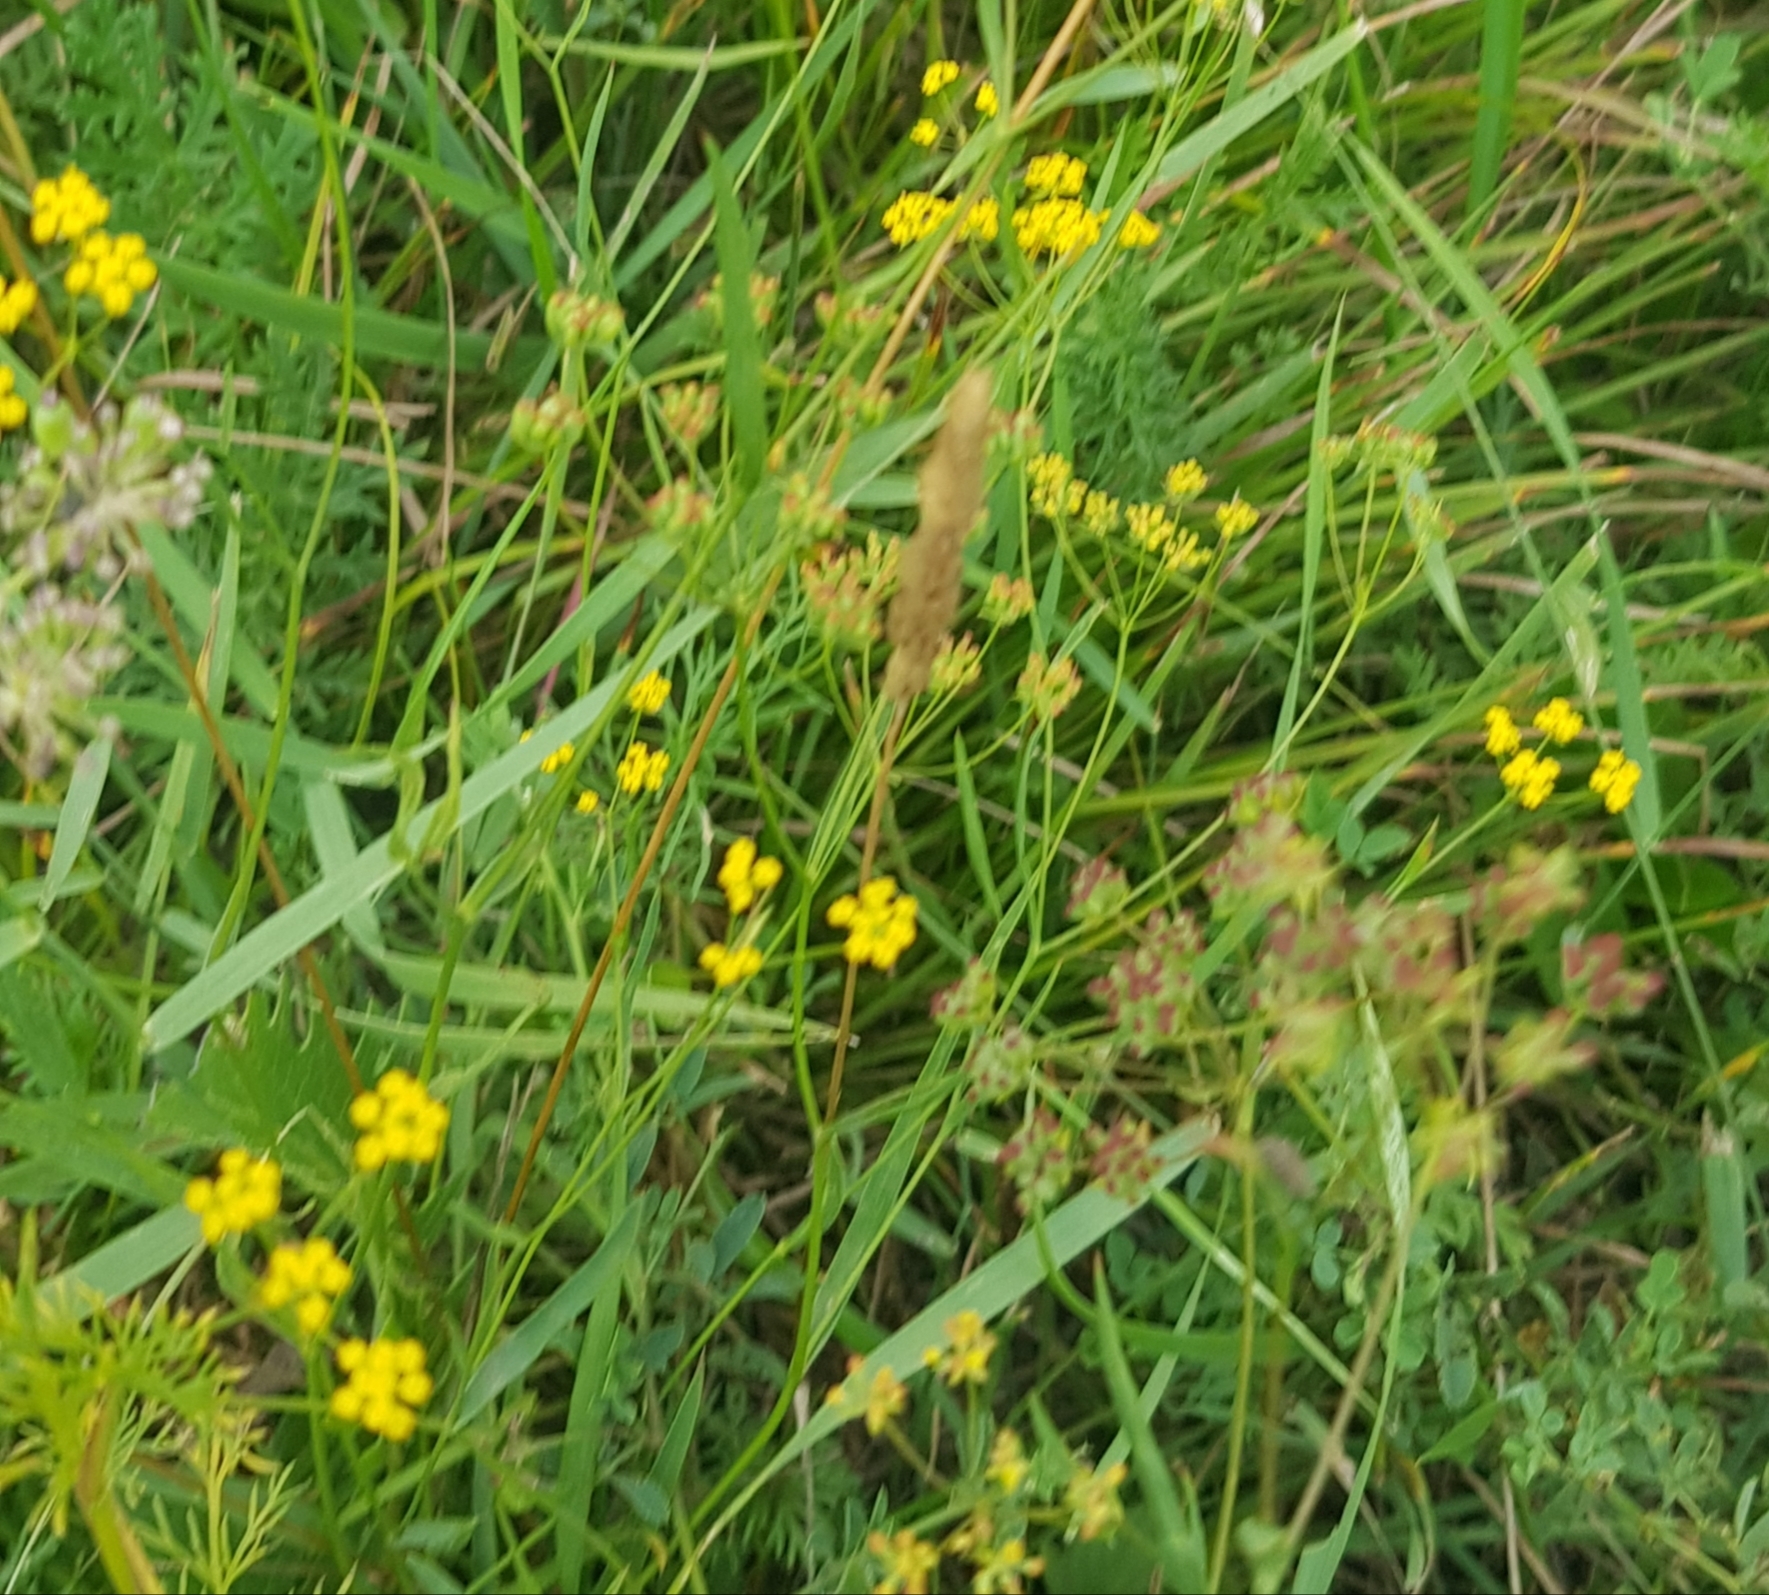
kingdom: Plantae
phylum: Tracheophyta
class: Magnoliopsida
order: Apiales
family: Apiaceae
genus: Bupleurum
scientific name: Bupleurum scorzonerifolium
